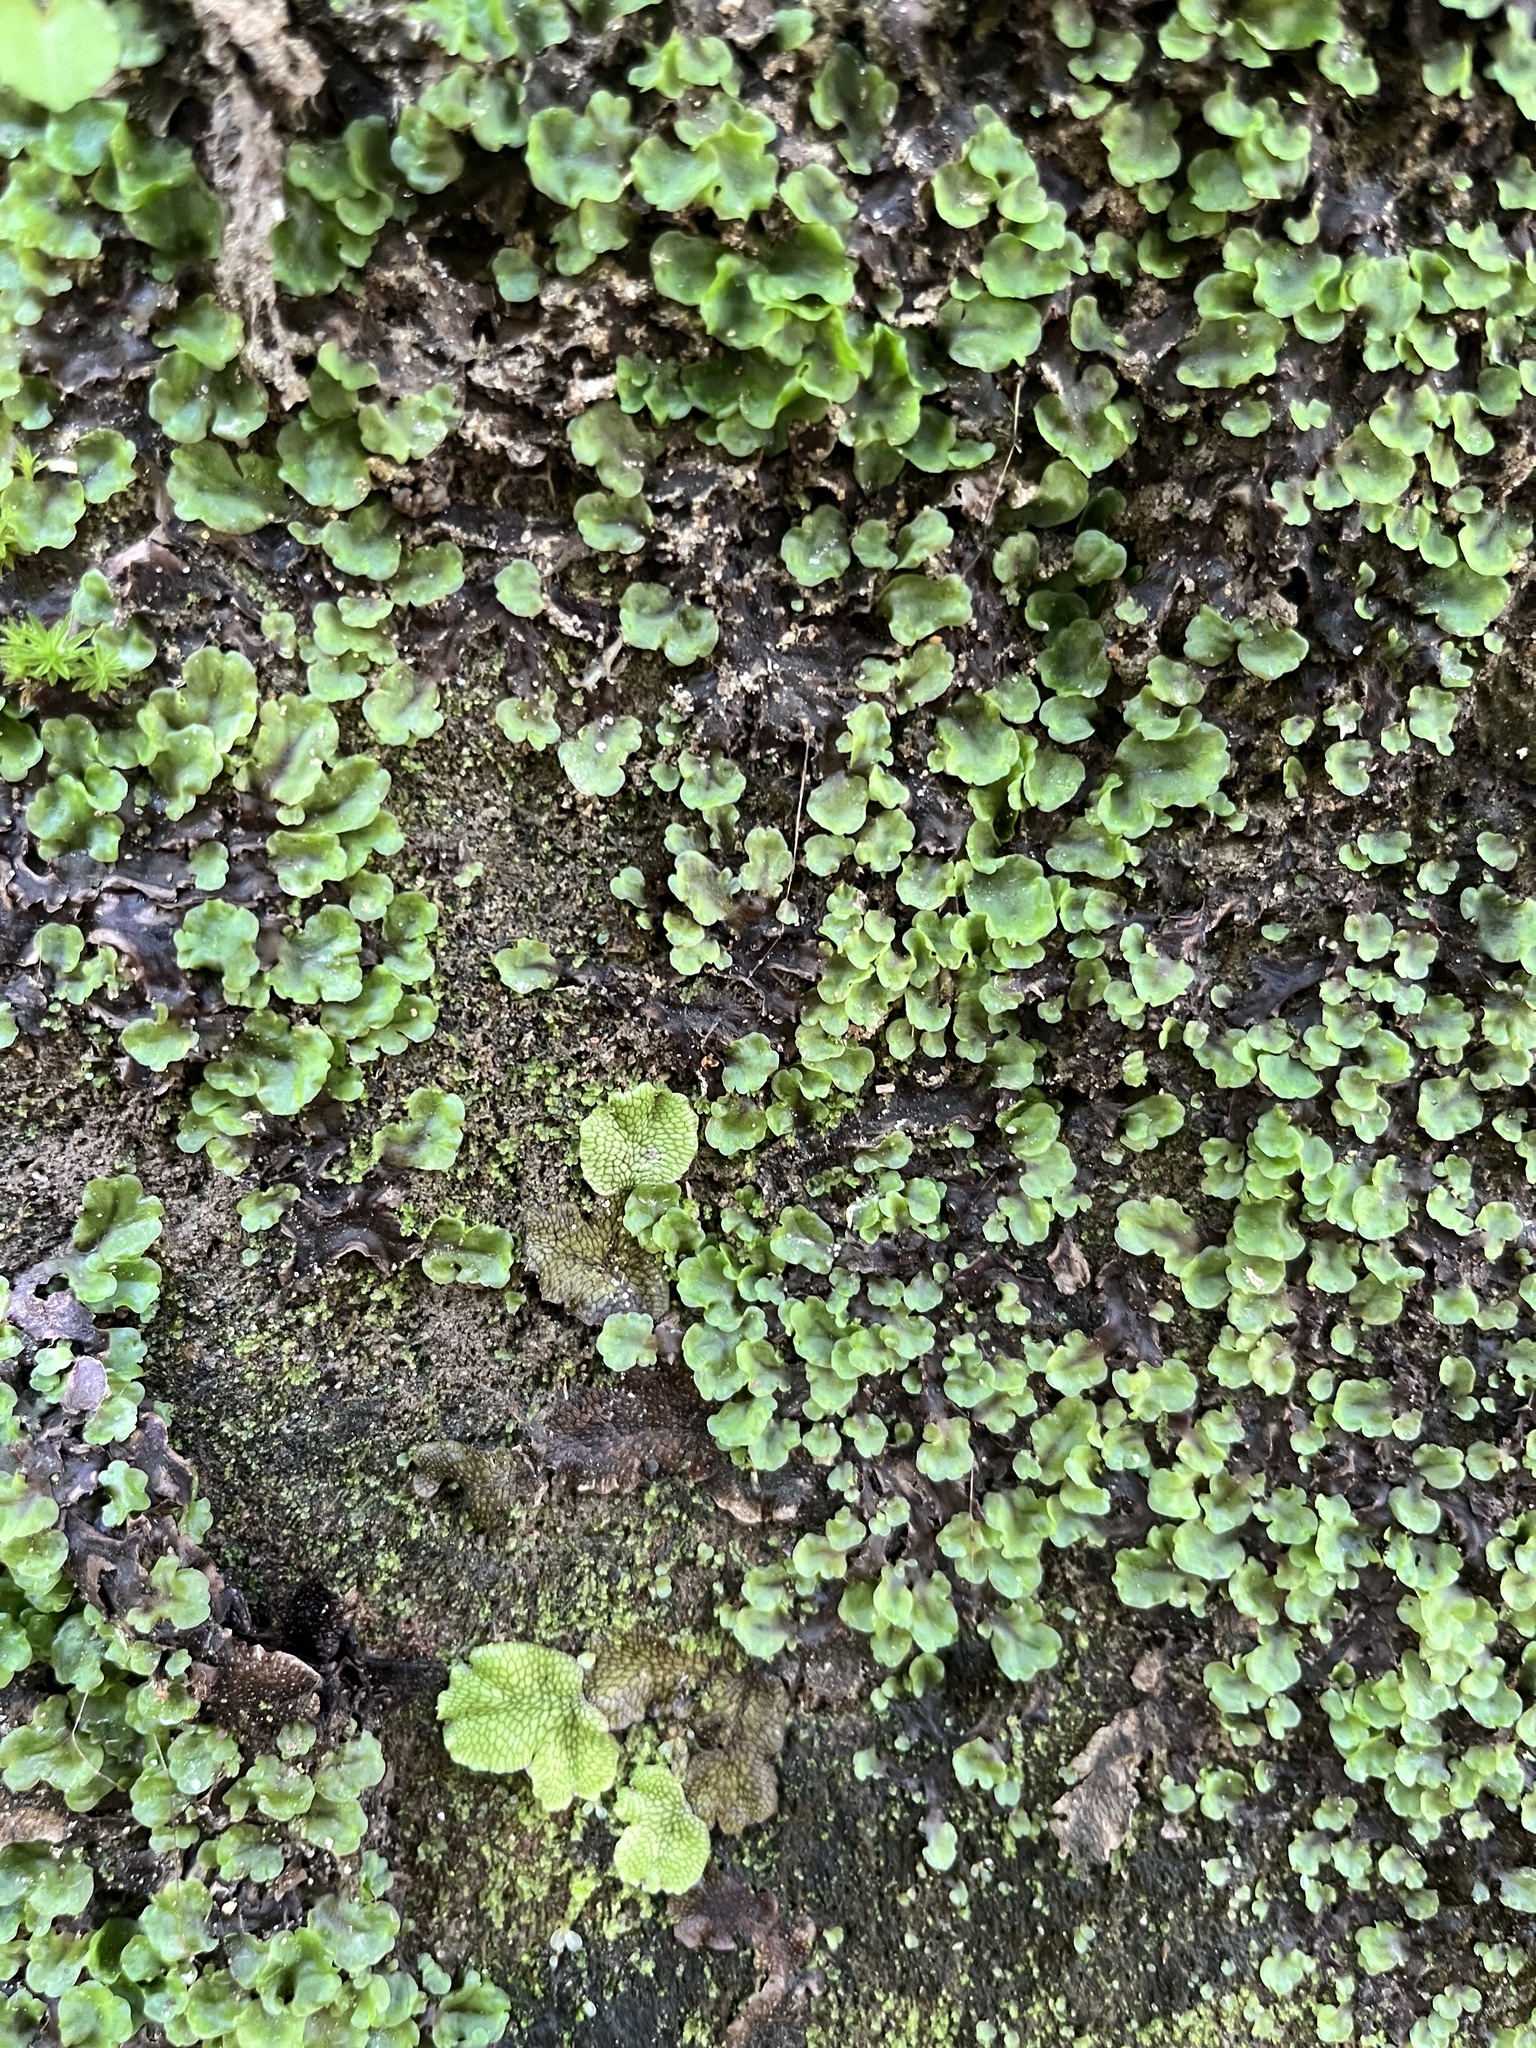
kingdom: Plantae
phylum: Marchantiophyta
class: Marchantiopsida
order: Marchantiales
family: Conocephalaceae
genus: Conocephalum
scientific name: Conocephalum salebrosum
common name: Cat-tongue liverwort
